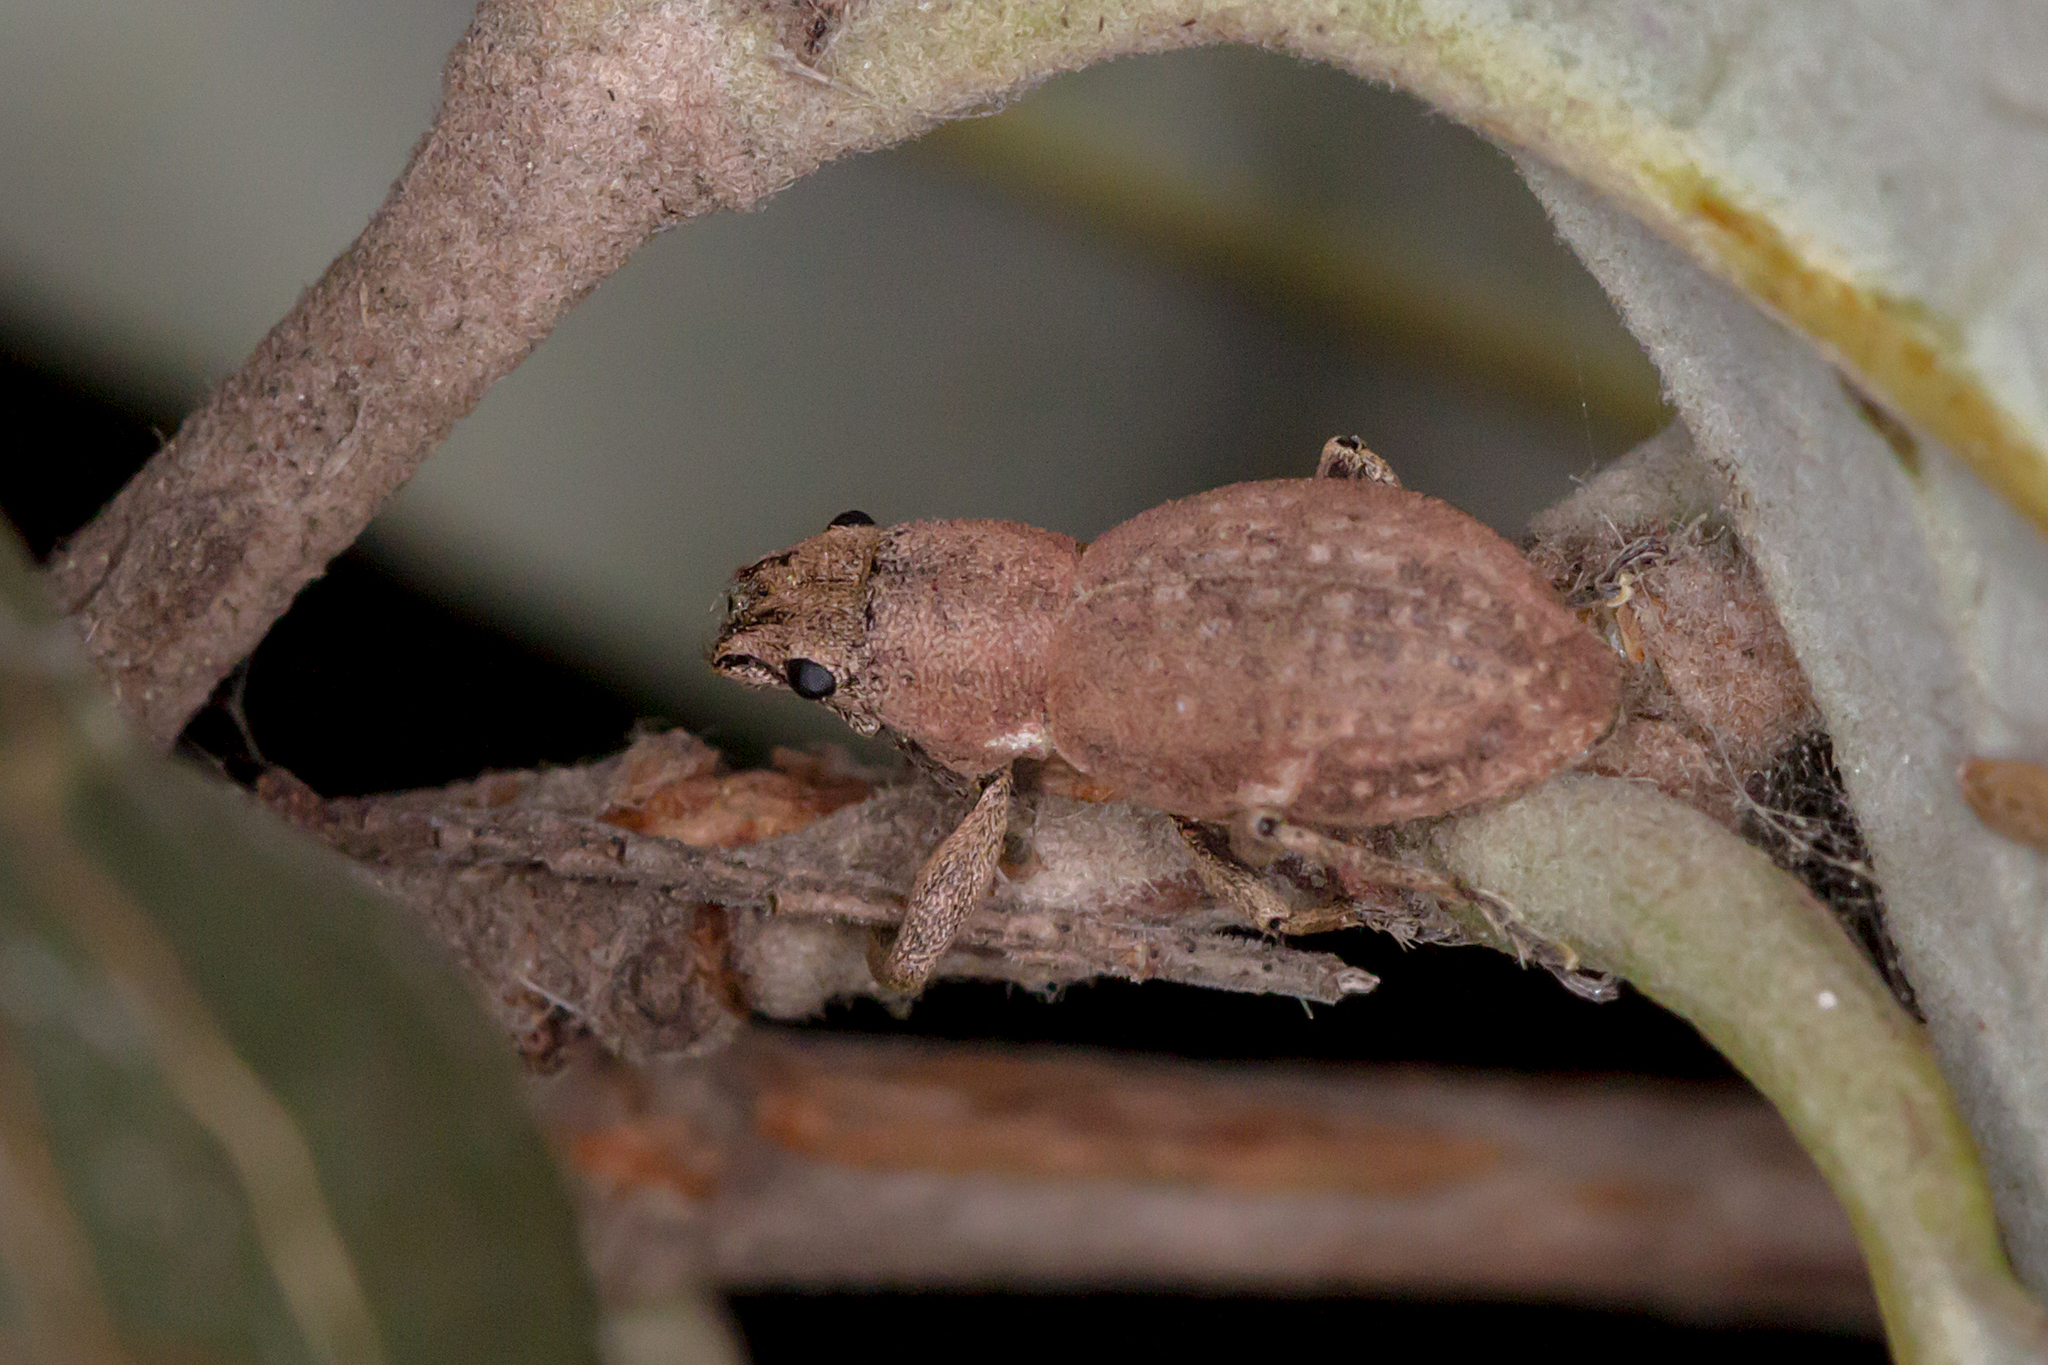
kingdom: Animalia
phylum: Arthropoda
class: Insecta
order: Coleoptera
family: Curculionidae
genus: Naupactus
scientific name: Naupactus cervinus
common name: Fuller rose beetle
